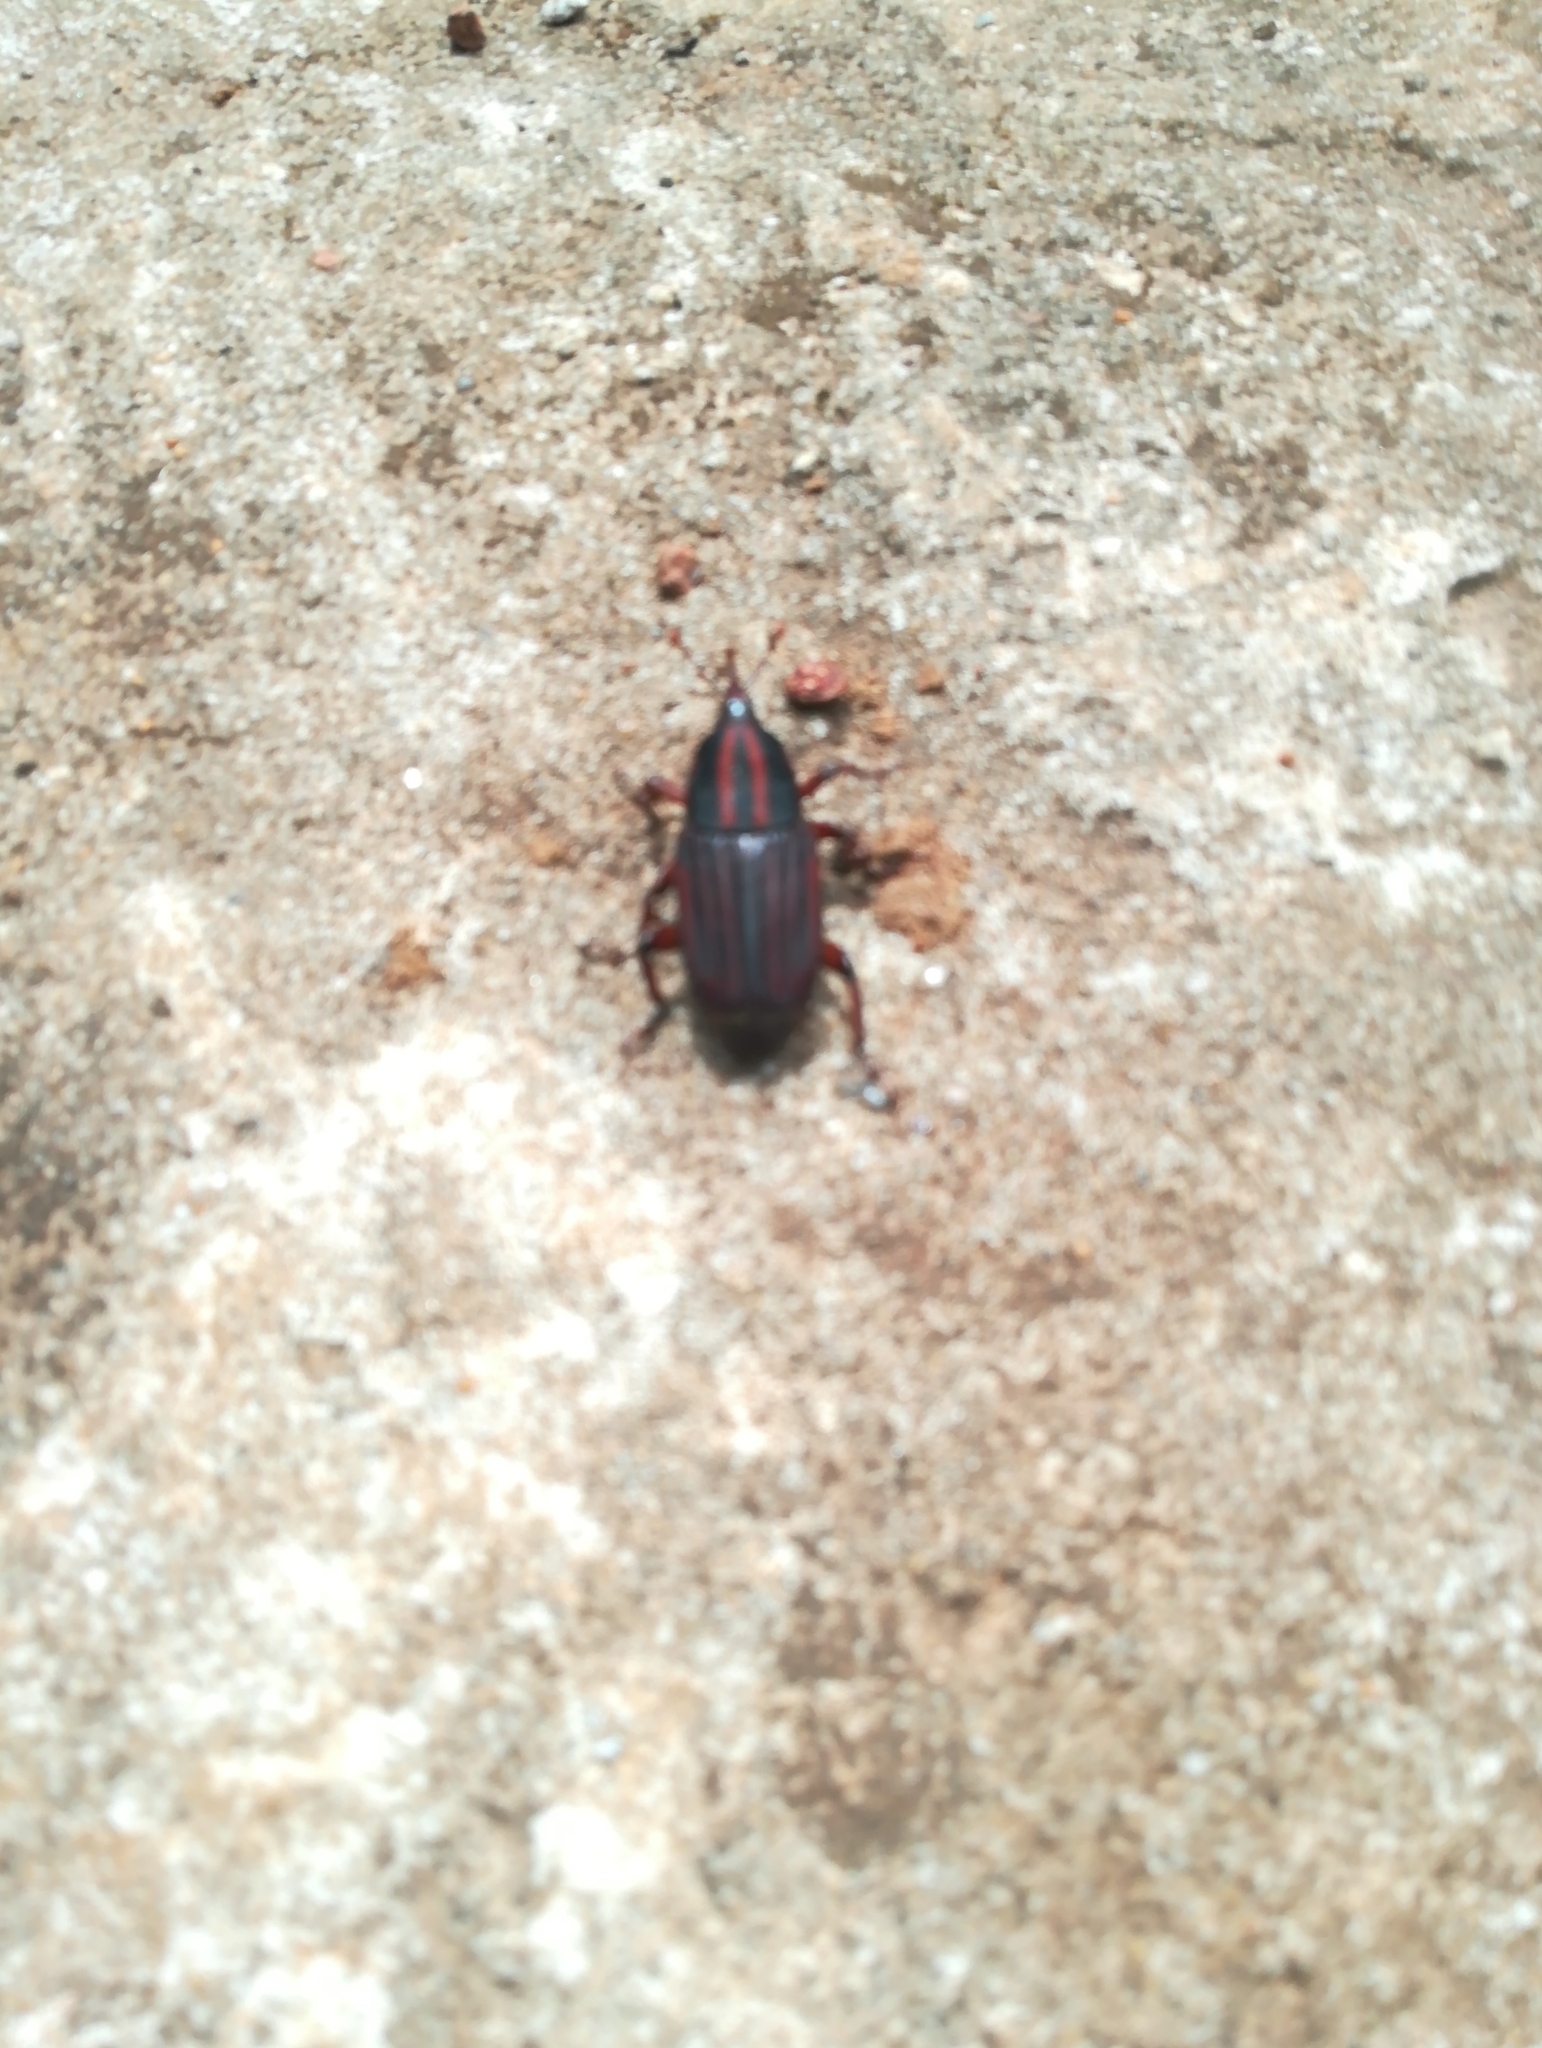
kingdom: Animalia
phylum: Arthropoda
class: Insecta
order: Coleoptera
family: Dryophthoridae
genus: Rhynchophorus
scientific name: Rhynchophorus phoenicis
